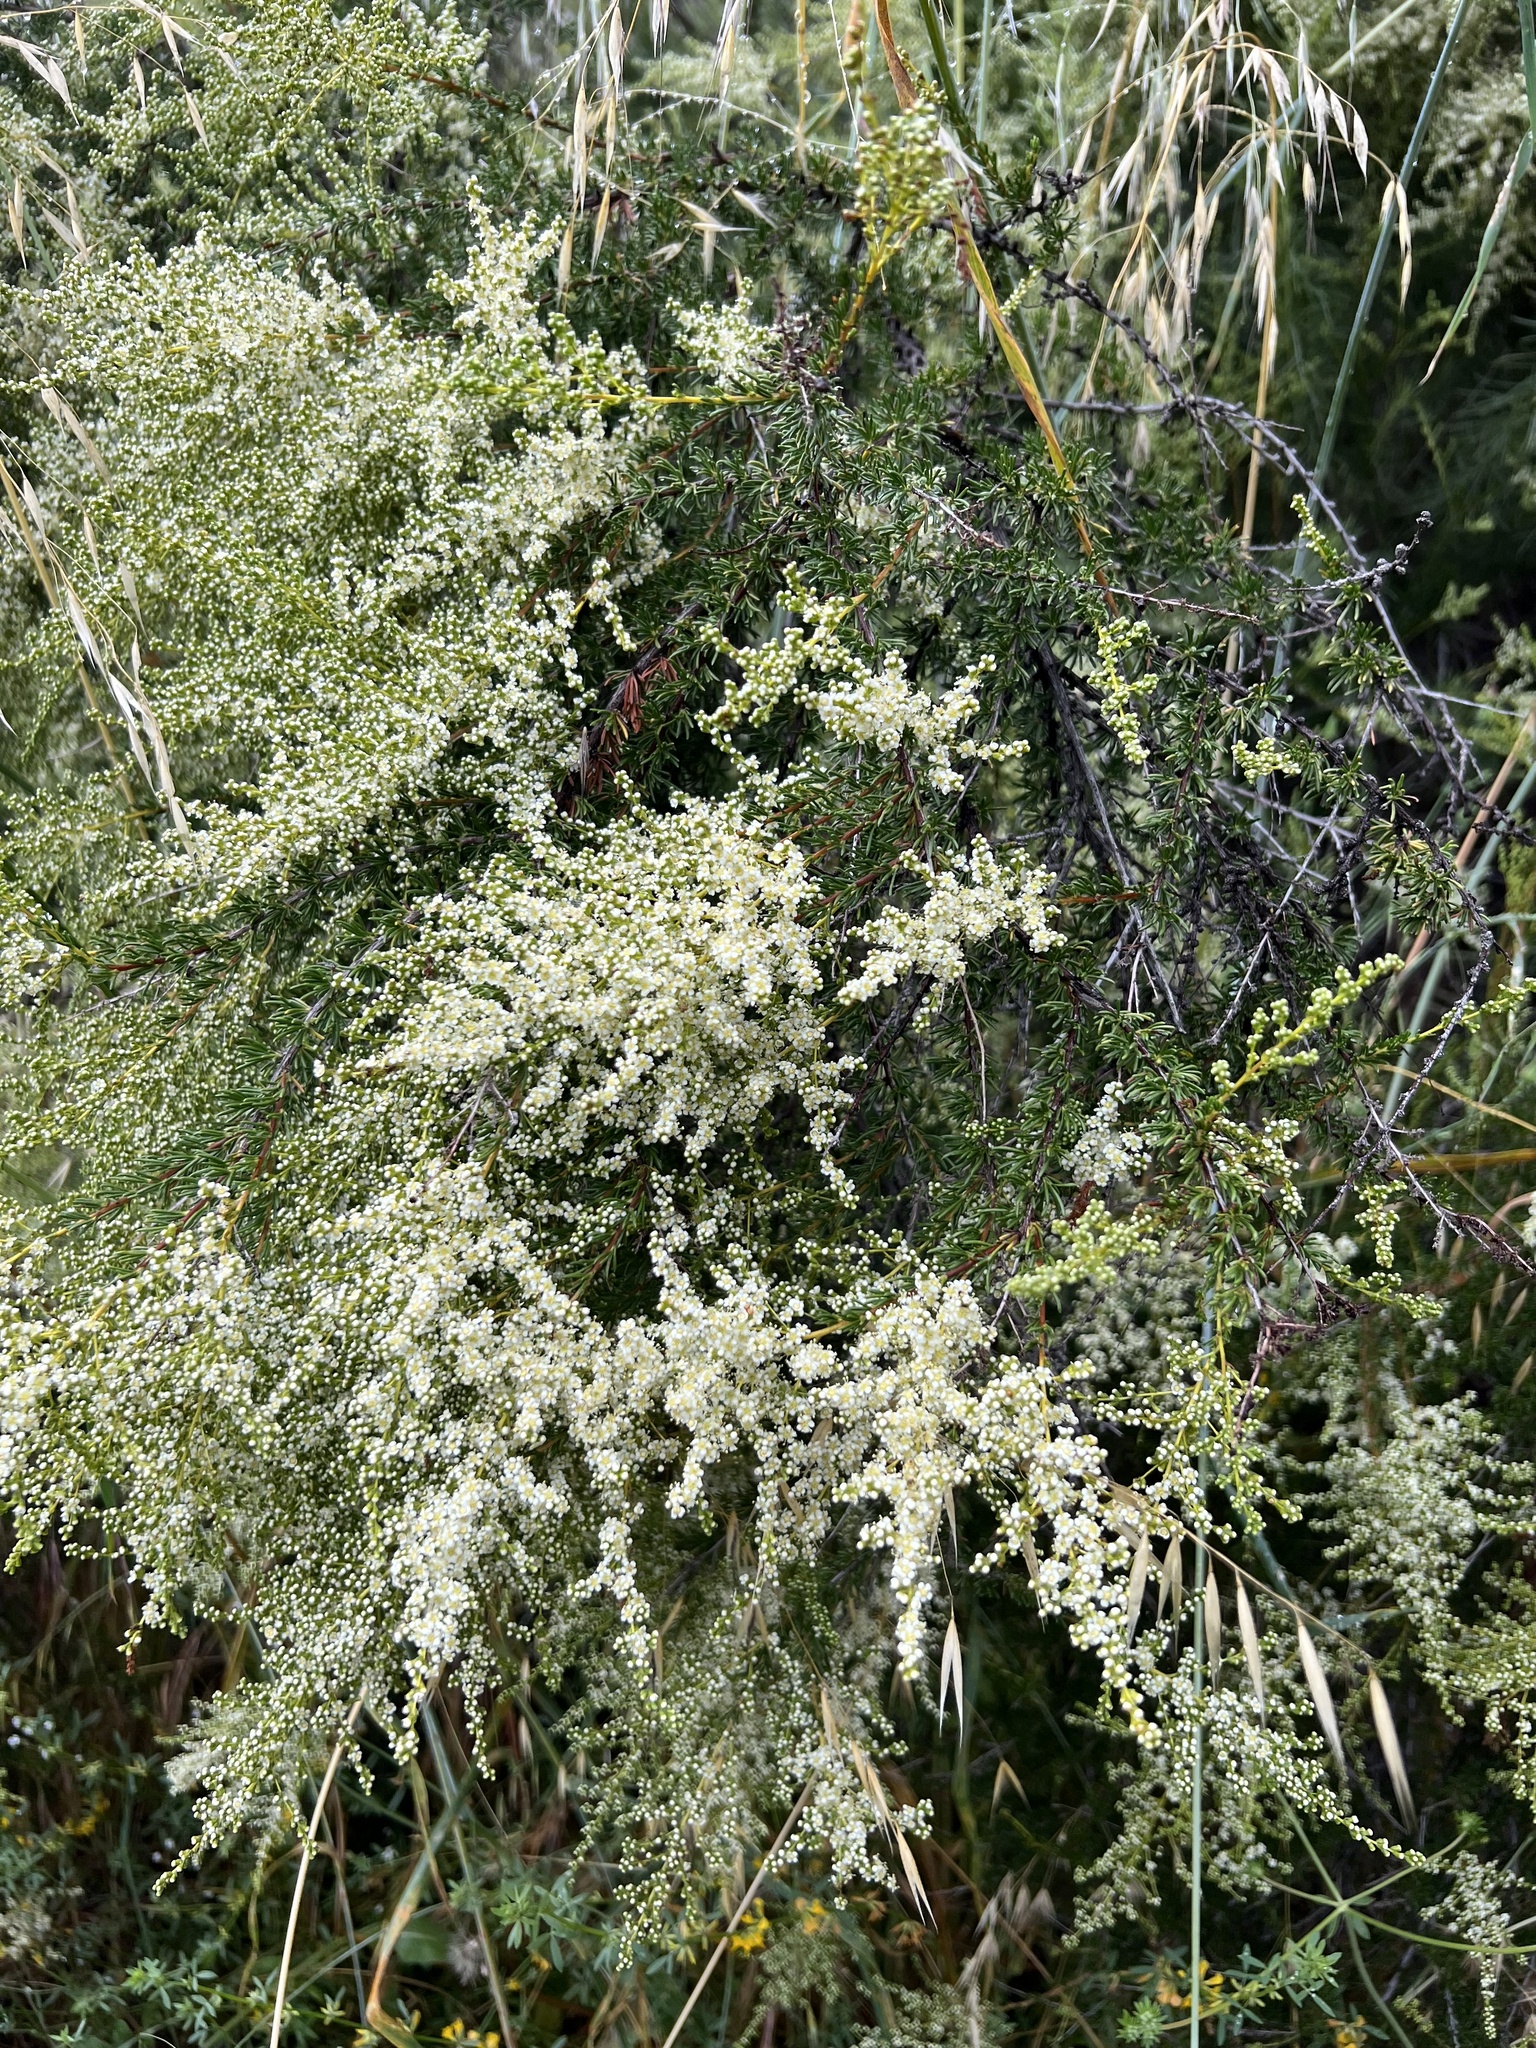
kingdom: Plantae
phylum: Tracheophyta
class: Magnoliopsida
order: Rosales
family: Rosaceae
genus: Adenostoma
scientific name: Adenostoma fasciculatum
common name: Chamise
